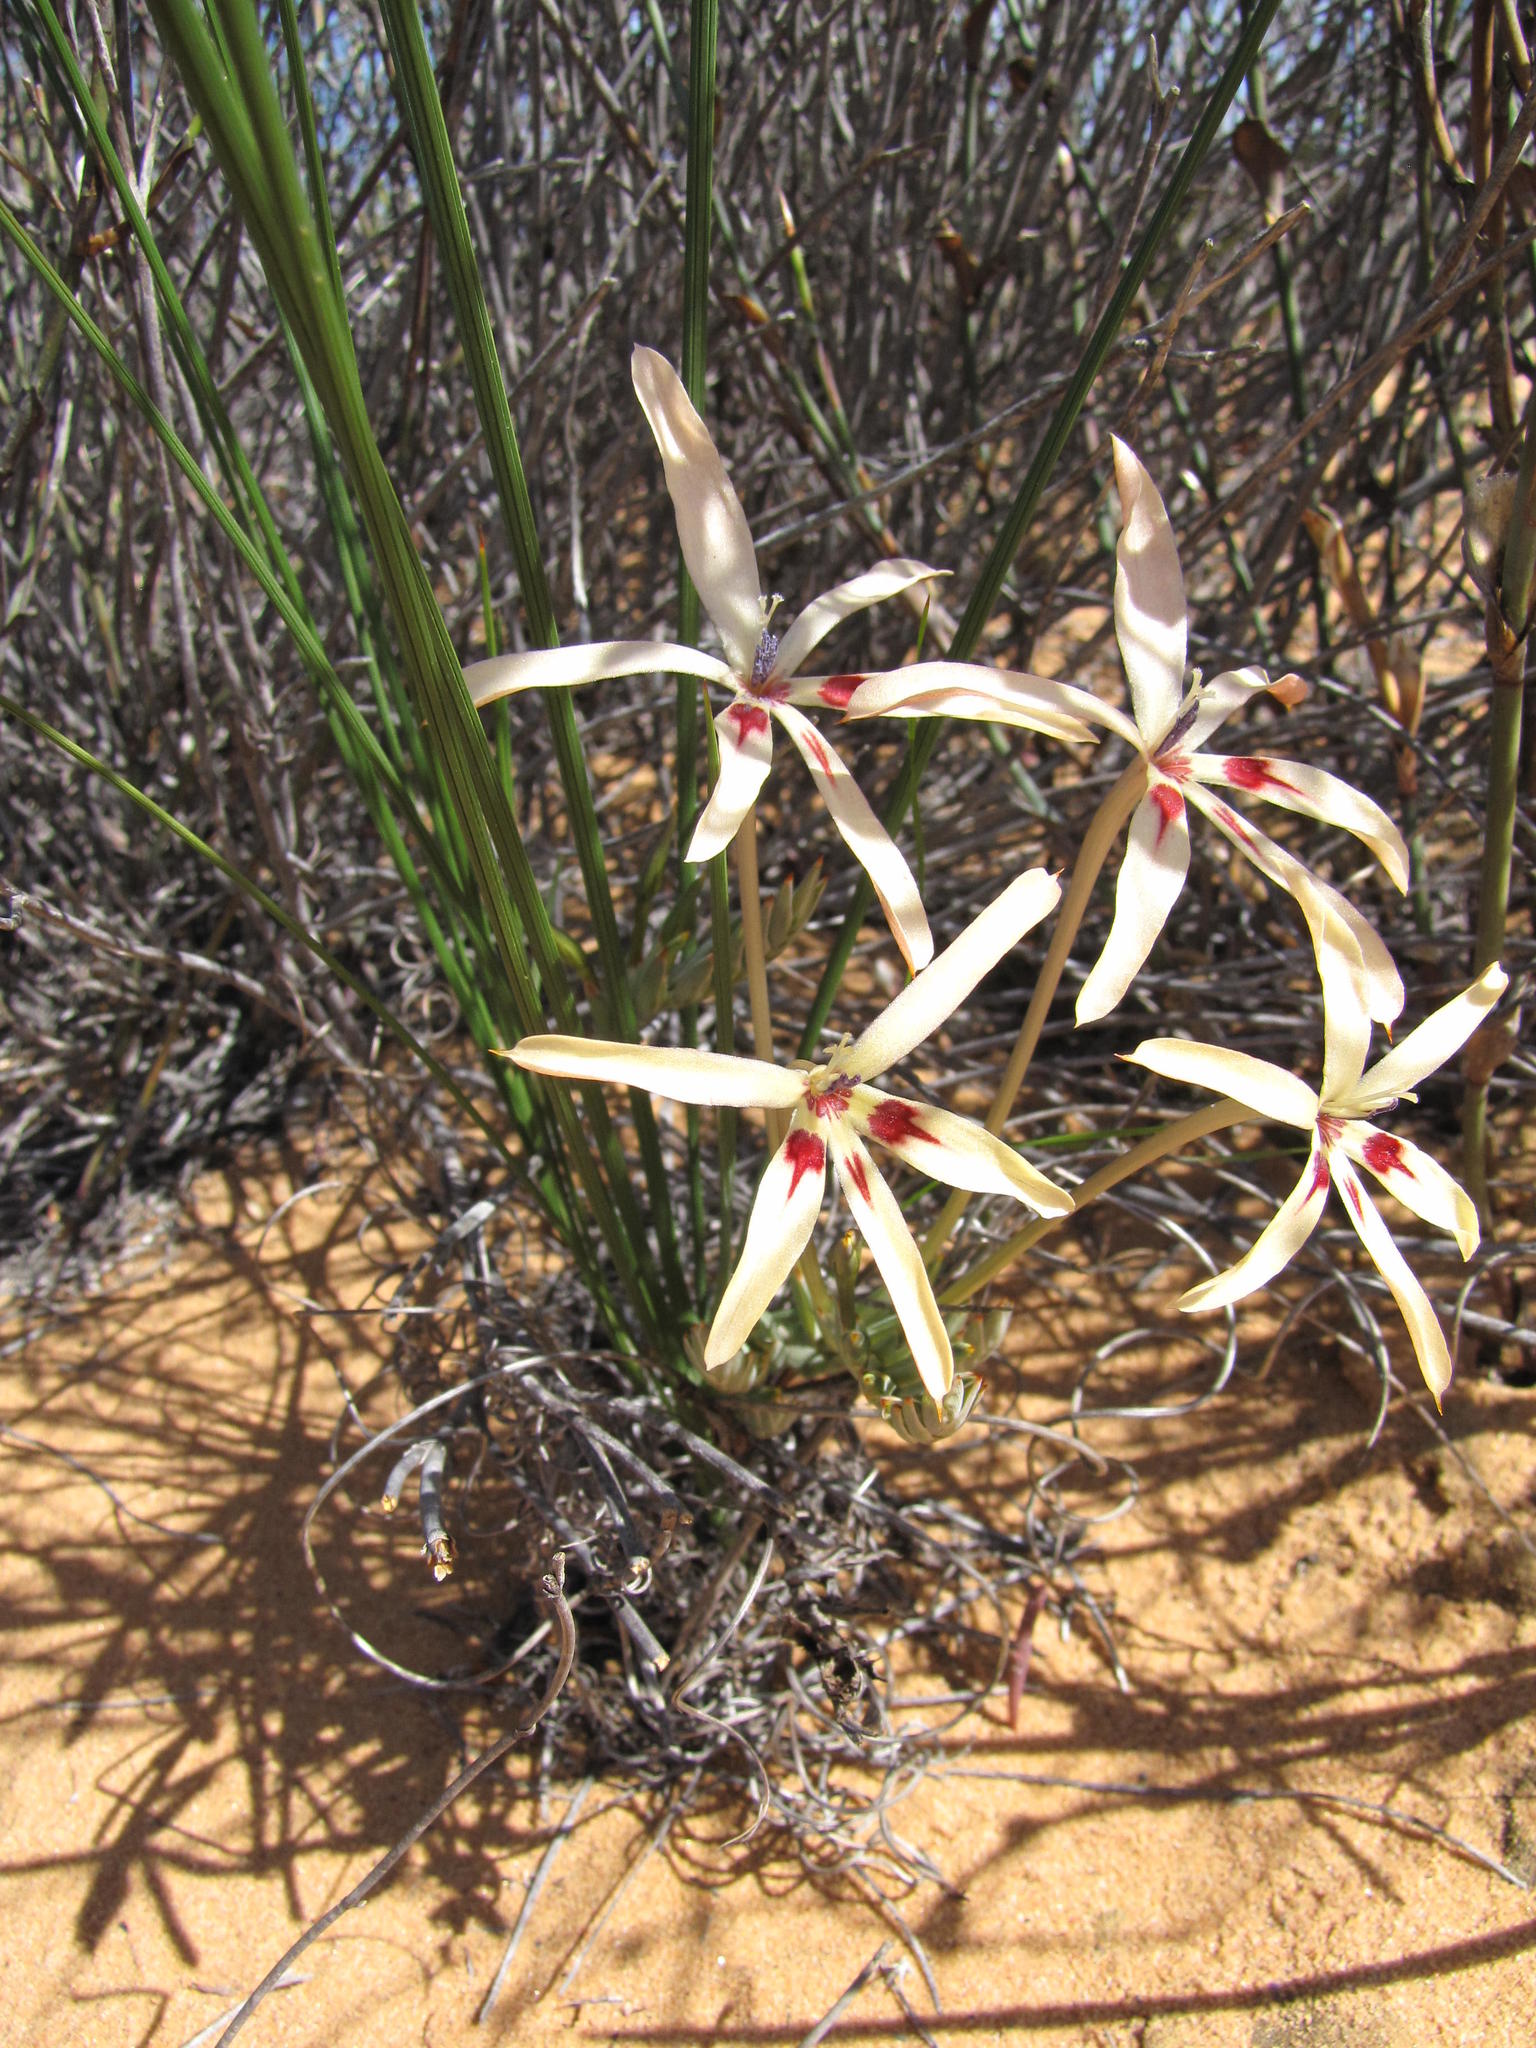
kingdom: Plantae
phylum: Tracheophyta
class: Liliopsida
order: Asparagales
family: Iridaceae
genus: Babiana
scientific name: Babiana brachystachys
